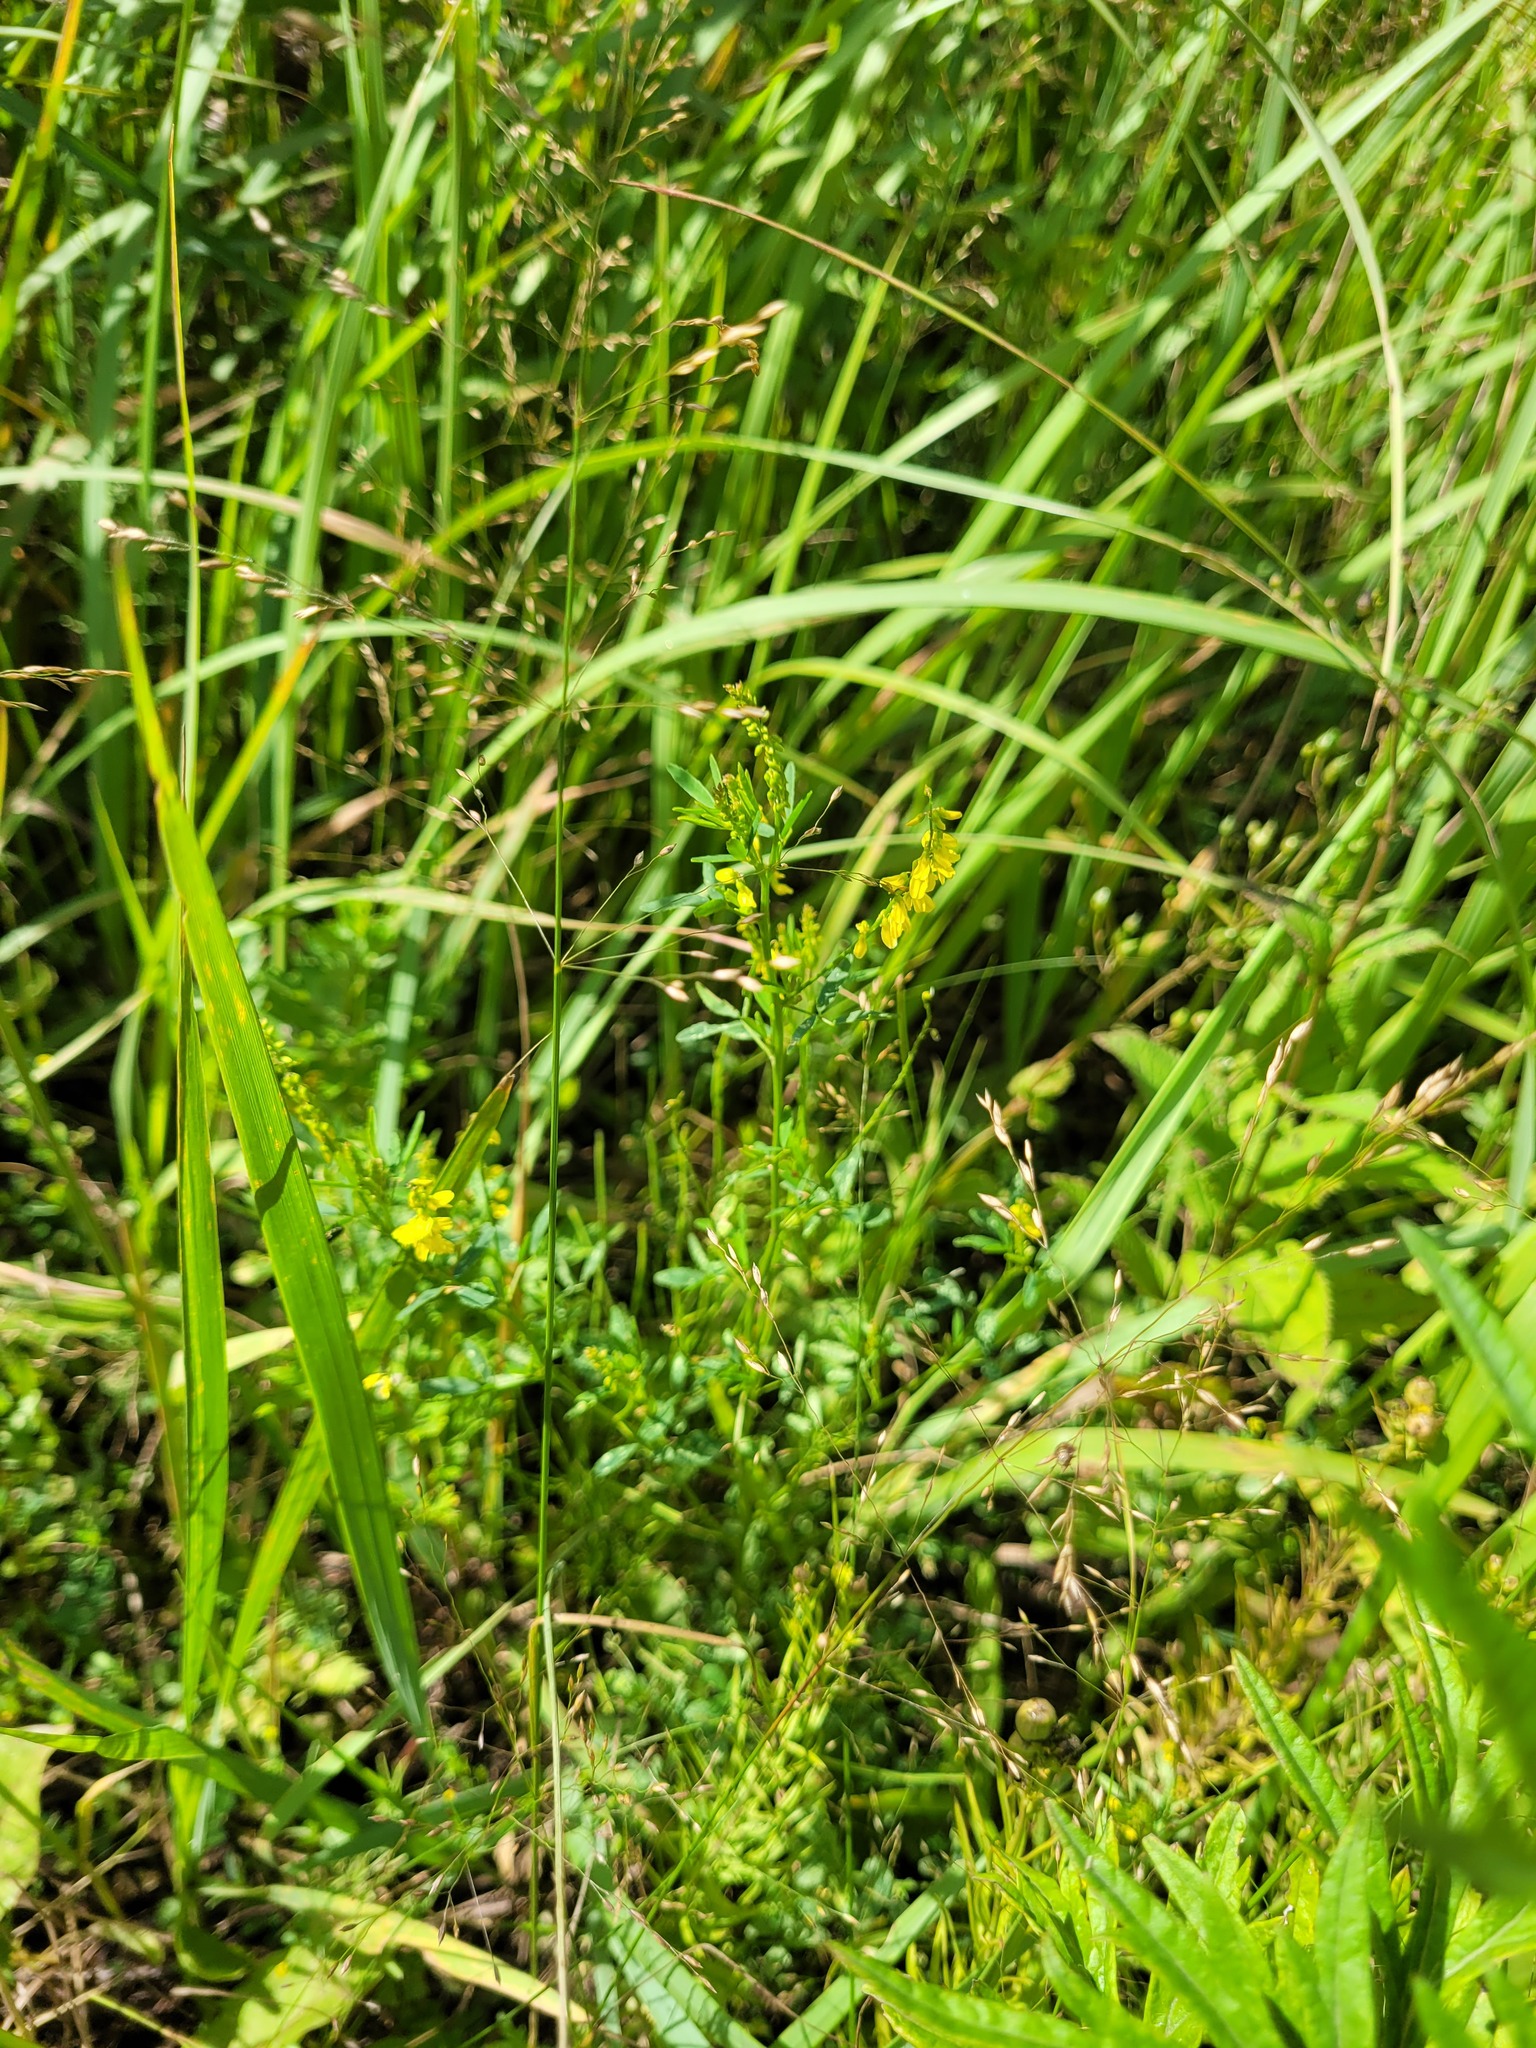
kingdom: Plantae
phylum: Tracheophyta
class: Magnoliopsida
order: Fabales
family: Fabaceae
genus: Melilotus
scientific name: Melilotus officinalis
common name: Sweetclover
